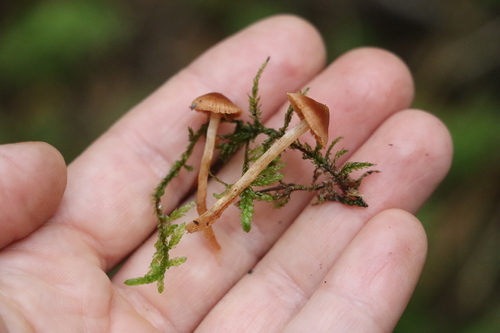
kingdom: Fungi
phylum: Basidiomycota
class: Agaricomycetes
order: Agaricales
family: Cortinariaceae
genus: Cortinarius
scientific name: Cortinarius parvannulatus
